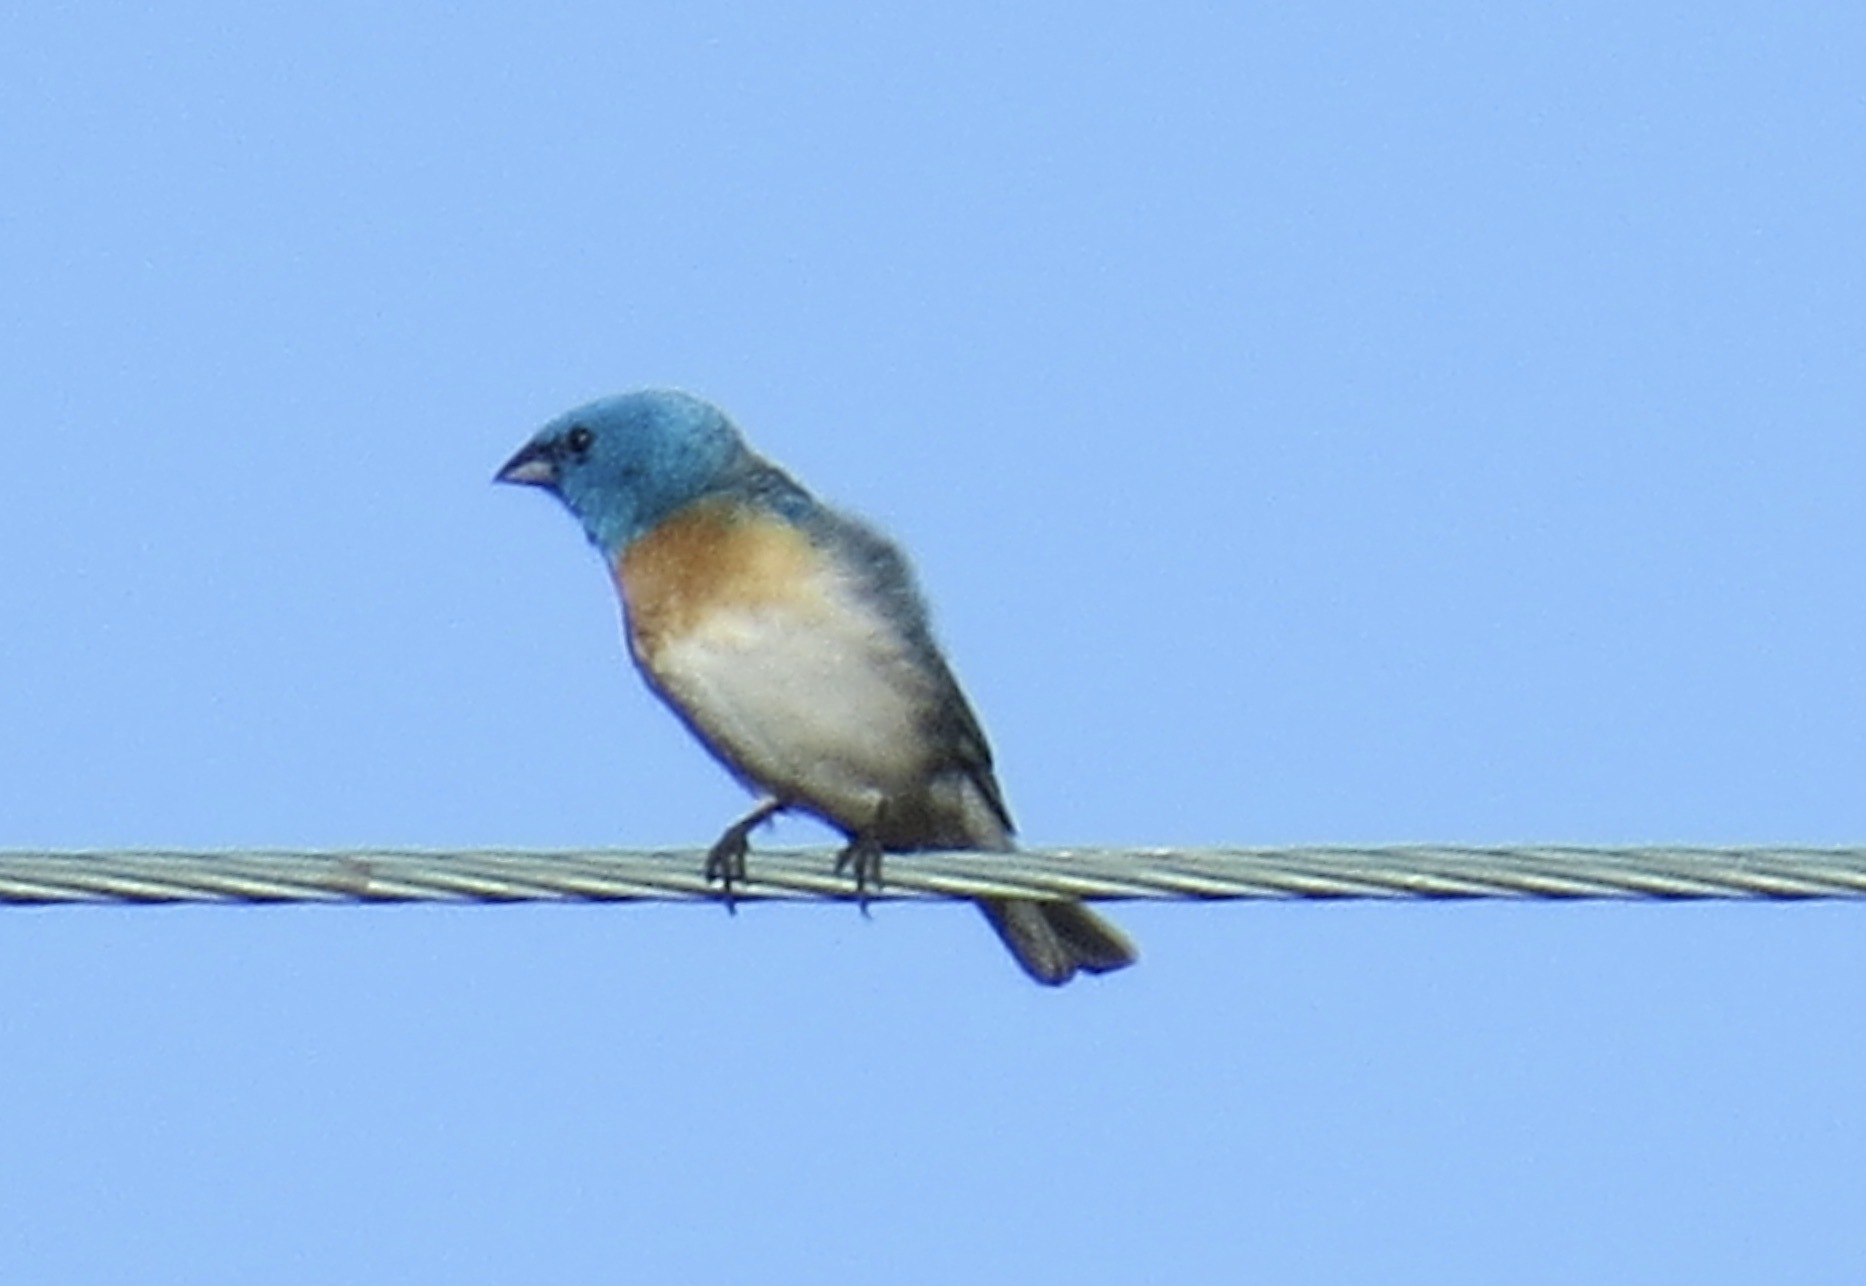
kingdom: Animalia
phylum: Chordata
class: Aves
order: Passeriformes
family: Cardinalidae
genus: Passerina
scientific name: Passerina amoena
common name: Lazuli bunting
